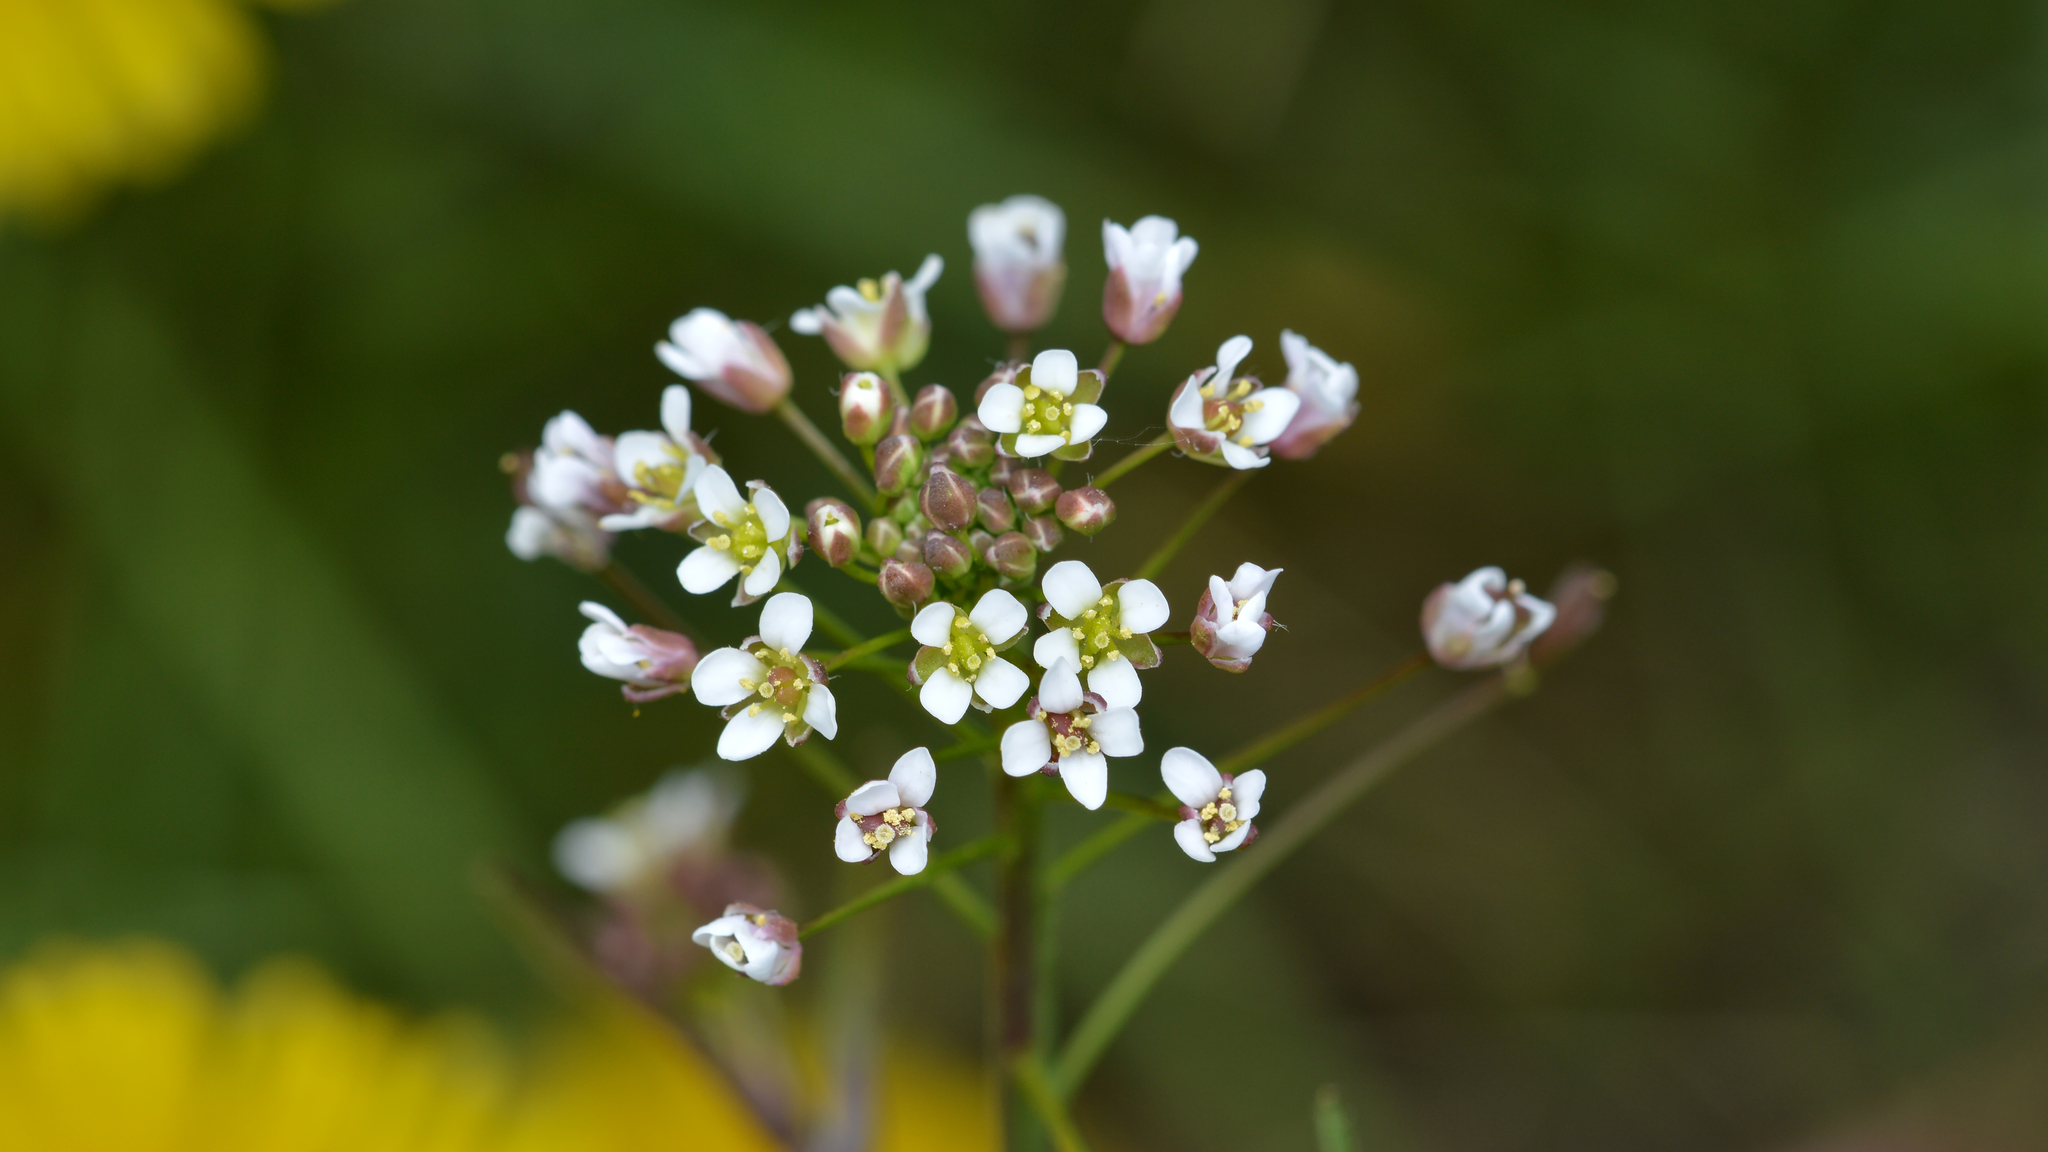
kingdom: Plantae
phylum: Tracheophyta
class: Magnoliopsida
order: Brassicales
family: Brassicaceae
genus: Capsella
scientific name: Capsella bursa-pastoris
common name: Shepherd's purse
